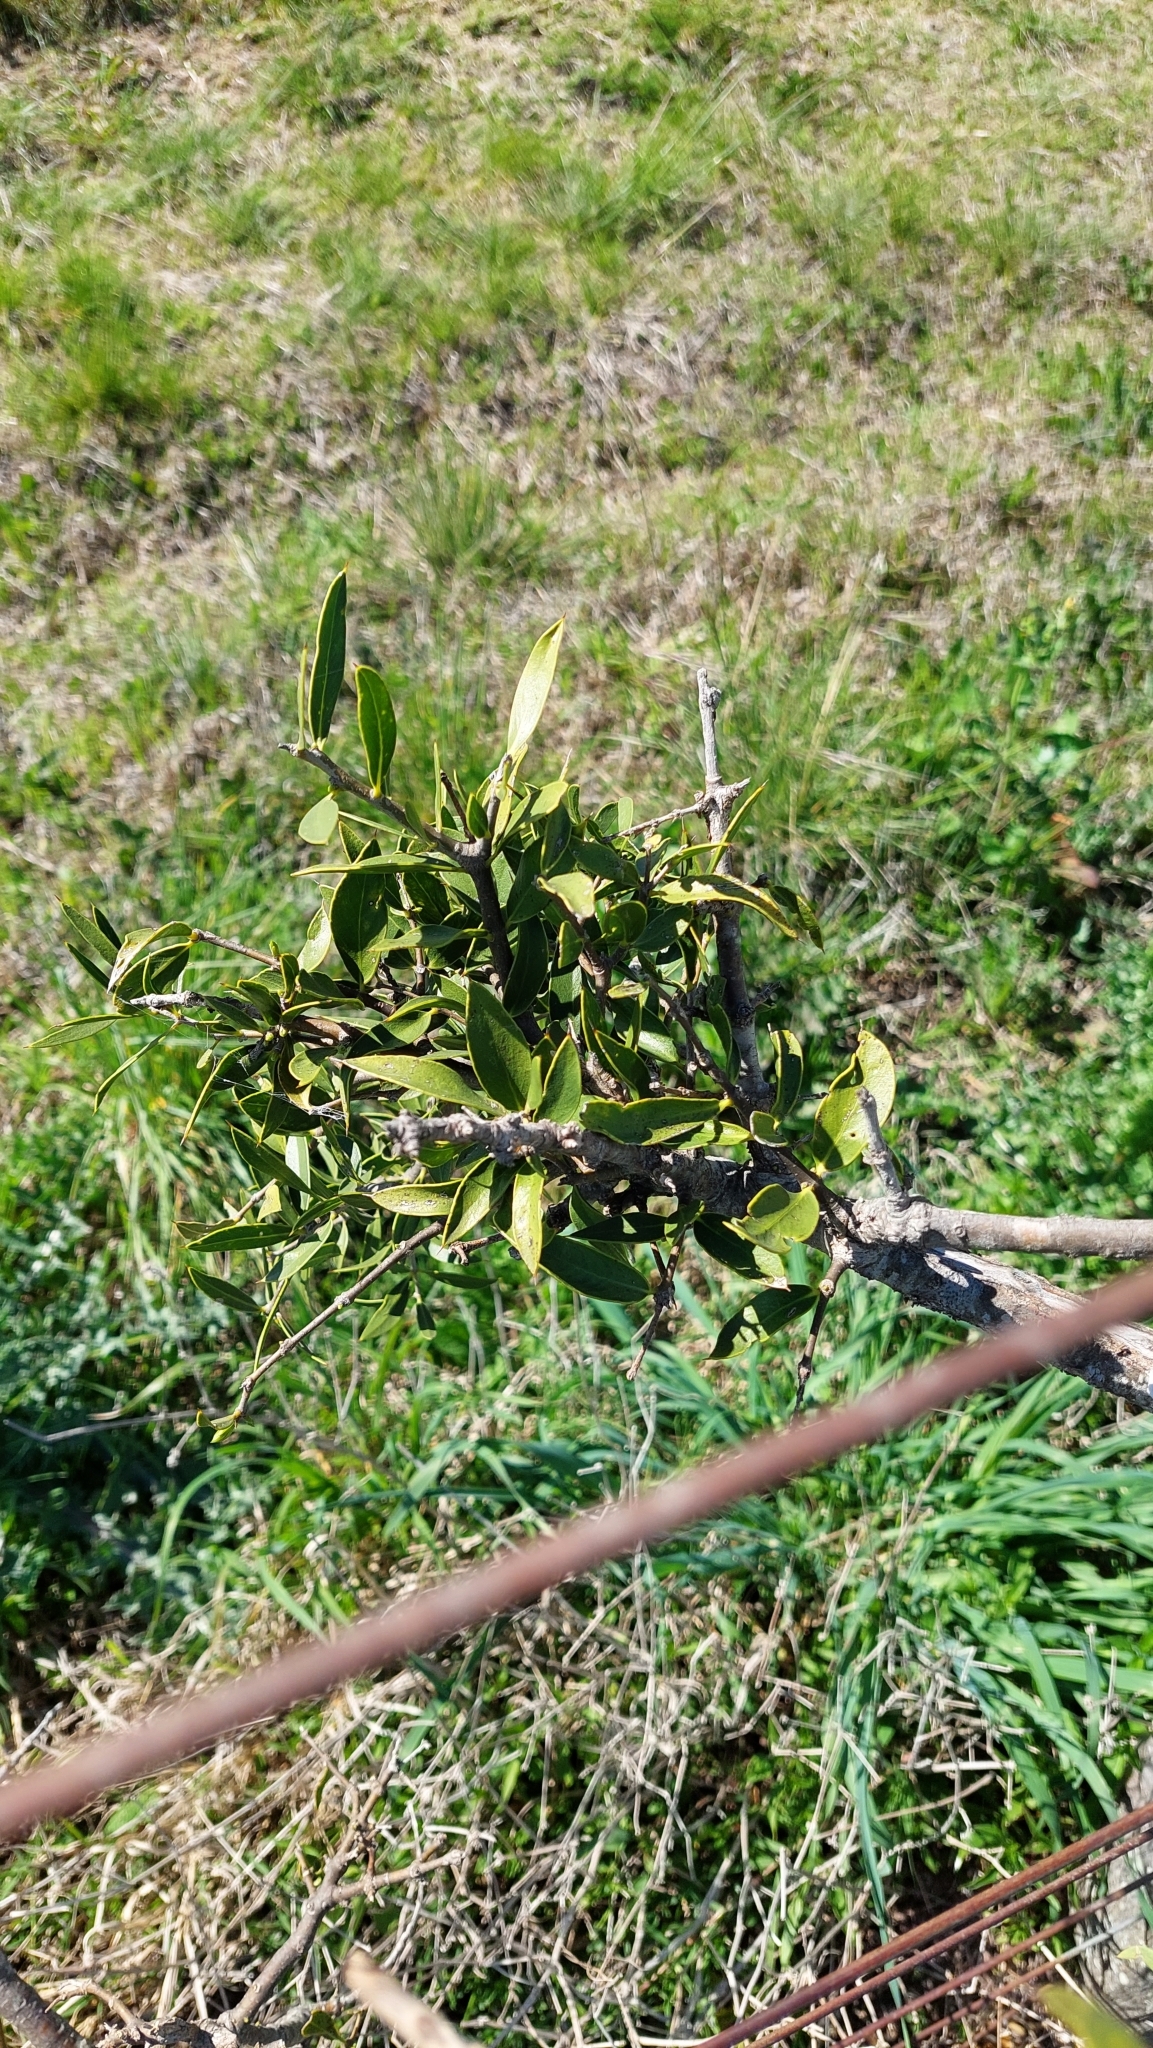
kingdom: Plantae
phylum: Tracheophyta
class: Magnoliopsida
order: Gentianales
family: Apocynaceae
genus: Aspidosperma
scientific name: Aspidosperma quebracho-blanco
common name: White quebracho
